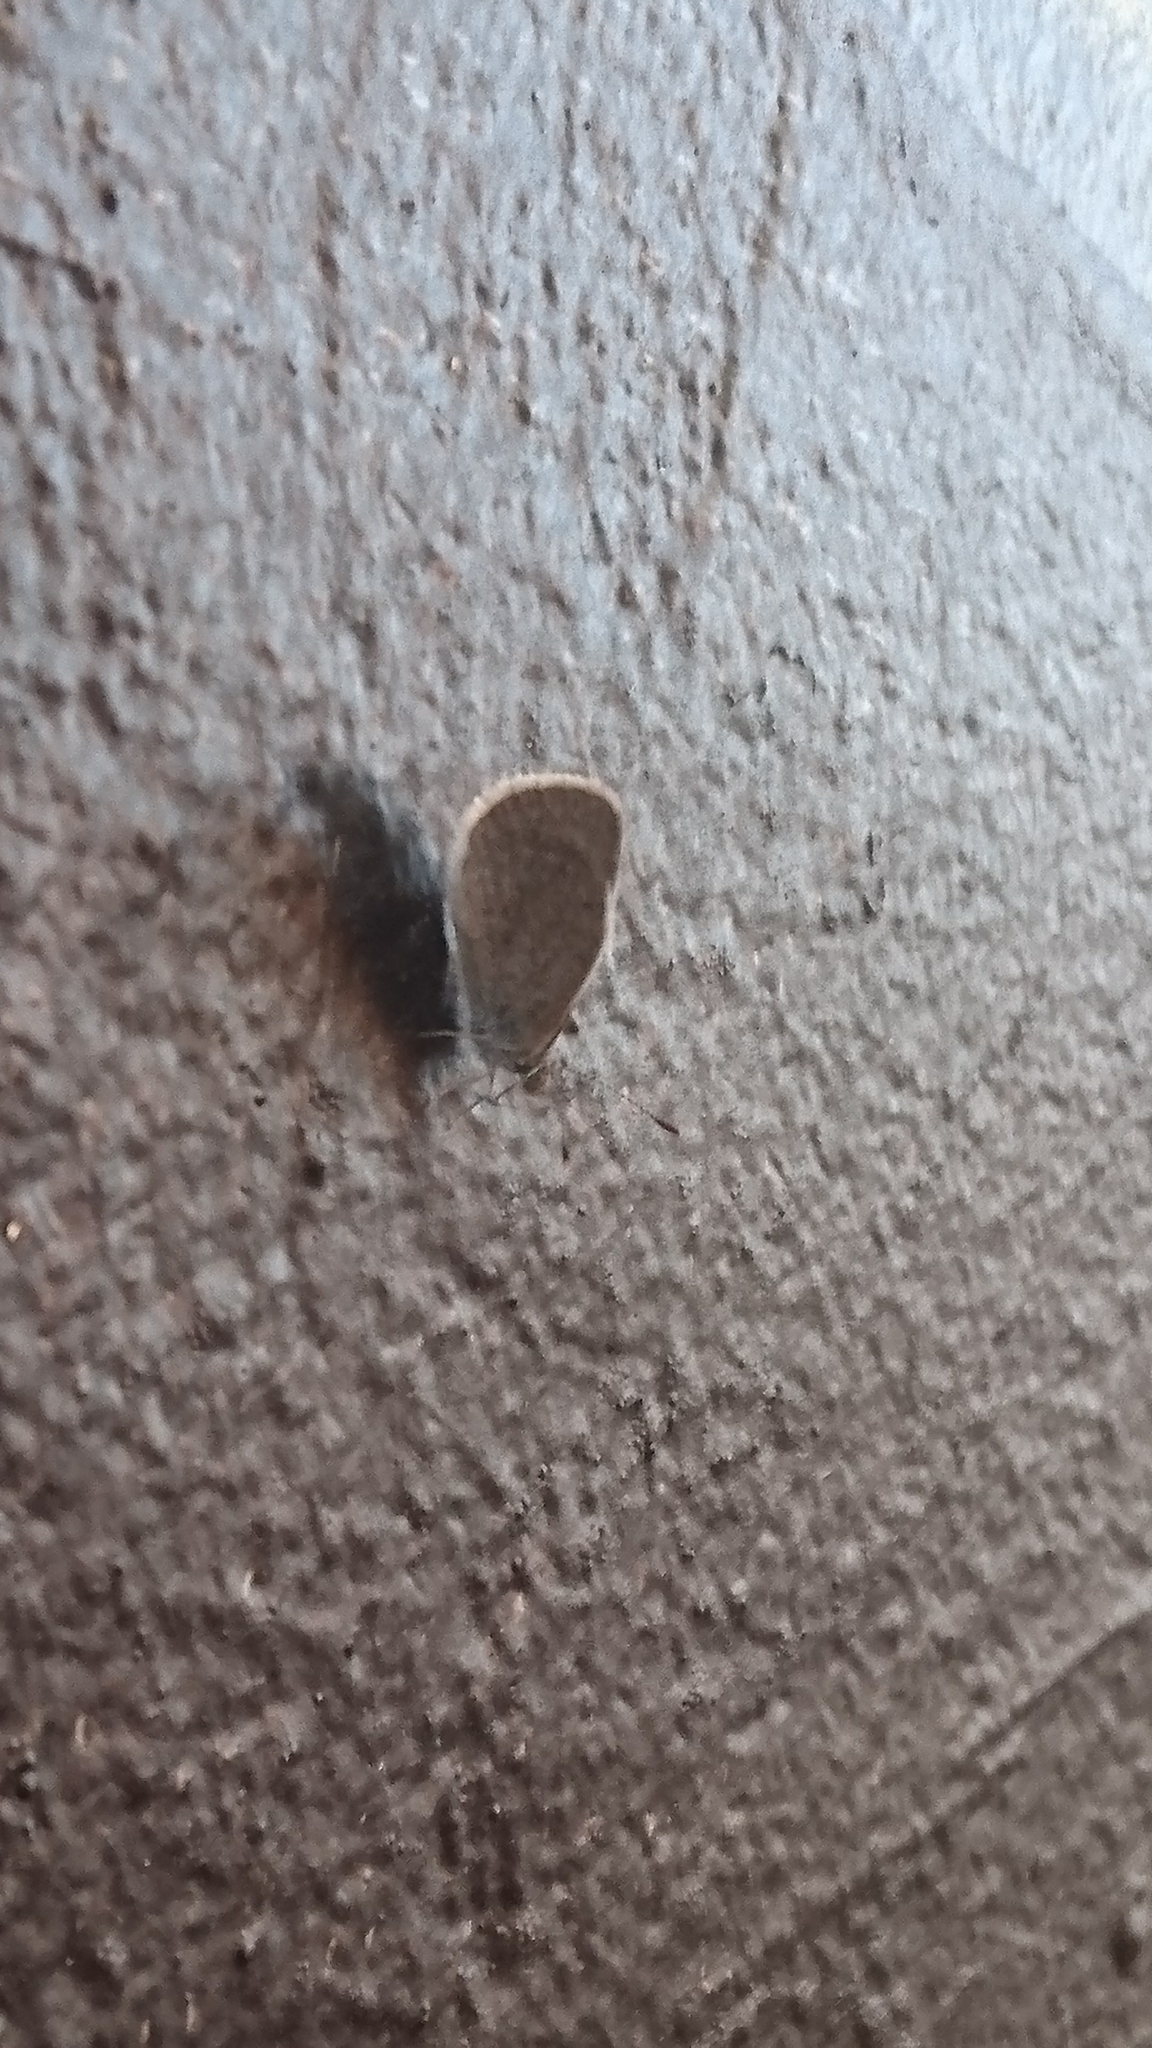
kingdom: Animalia
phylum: Arthropoda
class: Insecta
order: Lepidoptera
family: Lycaenidae
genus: Zizina
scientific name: Zizina labradus
